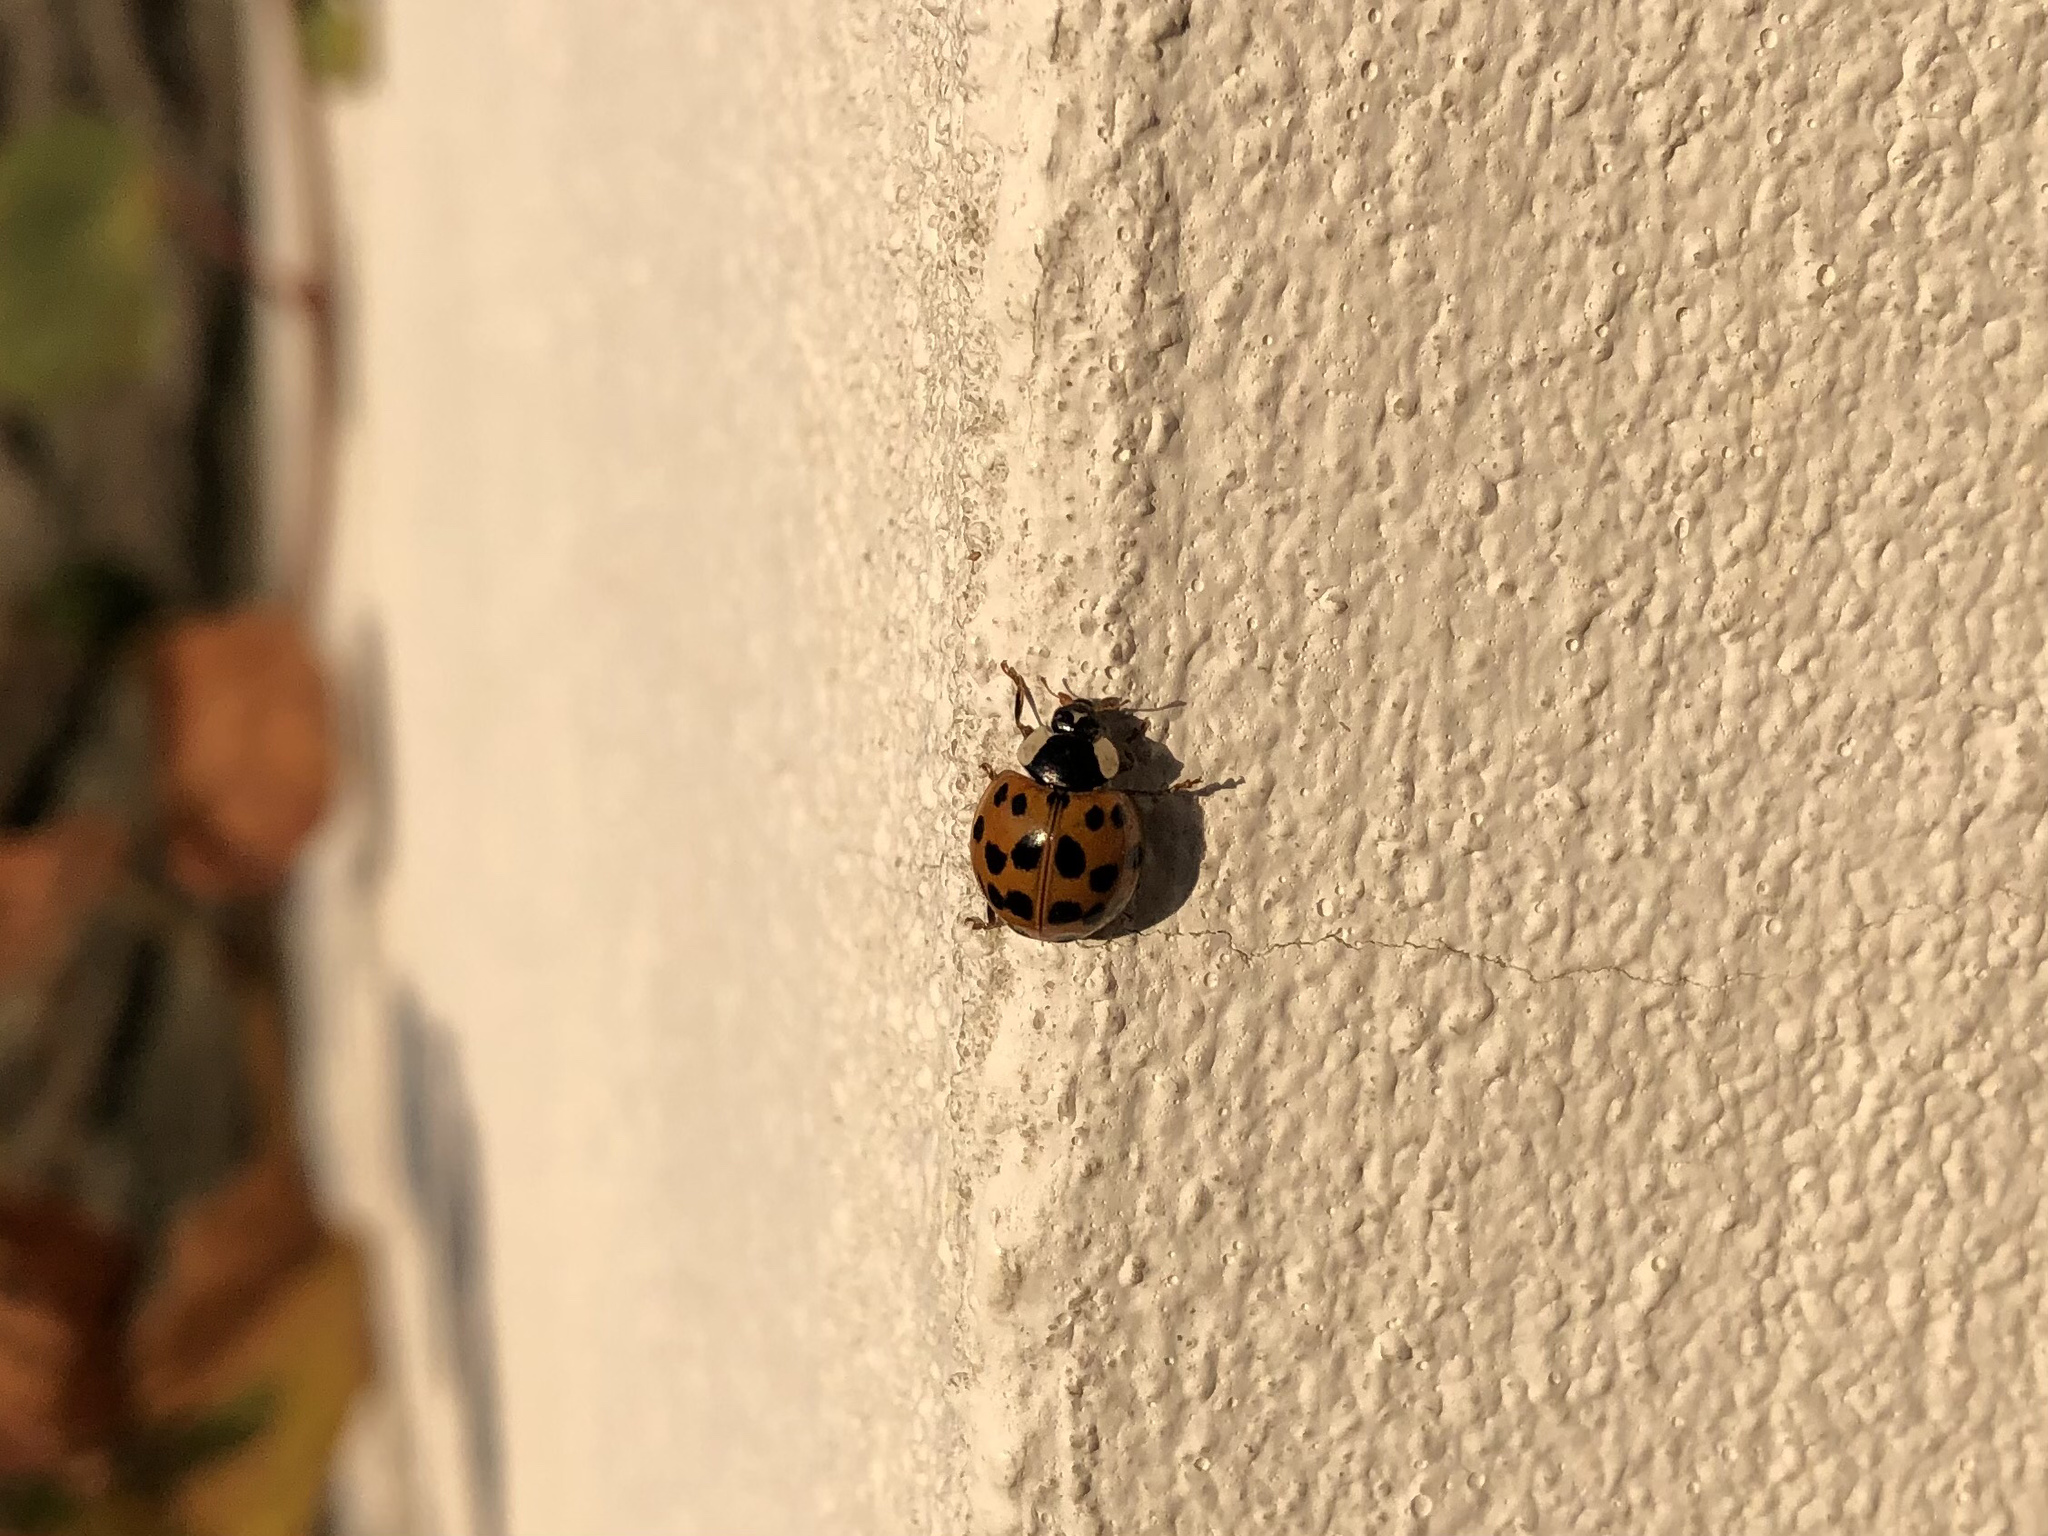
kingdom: Animalia
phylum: Arthropoda
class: Insecta
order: Coleoptera
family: Coccinellidae
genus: Harmonia
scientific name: Harmonia axyridis
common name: Harlequin ladybird
